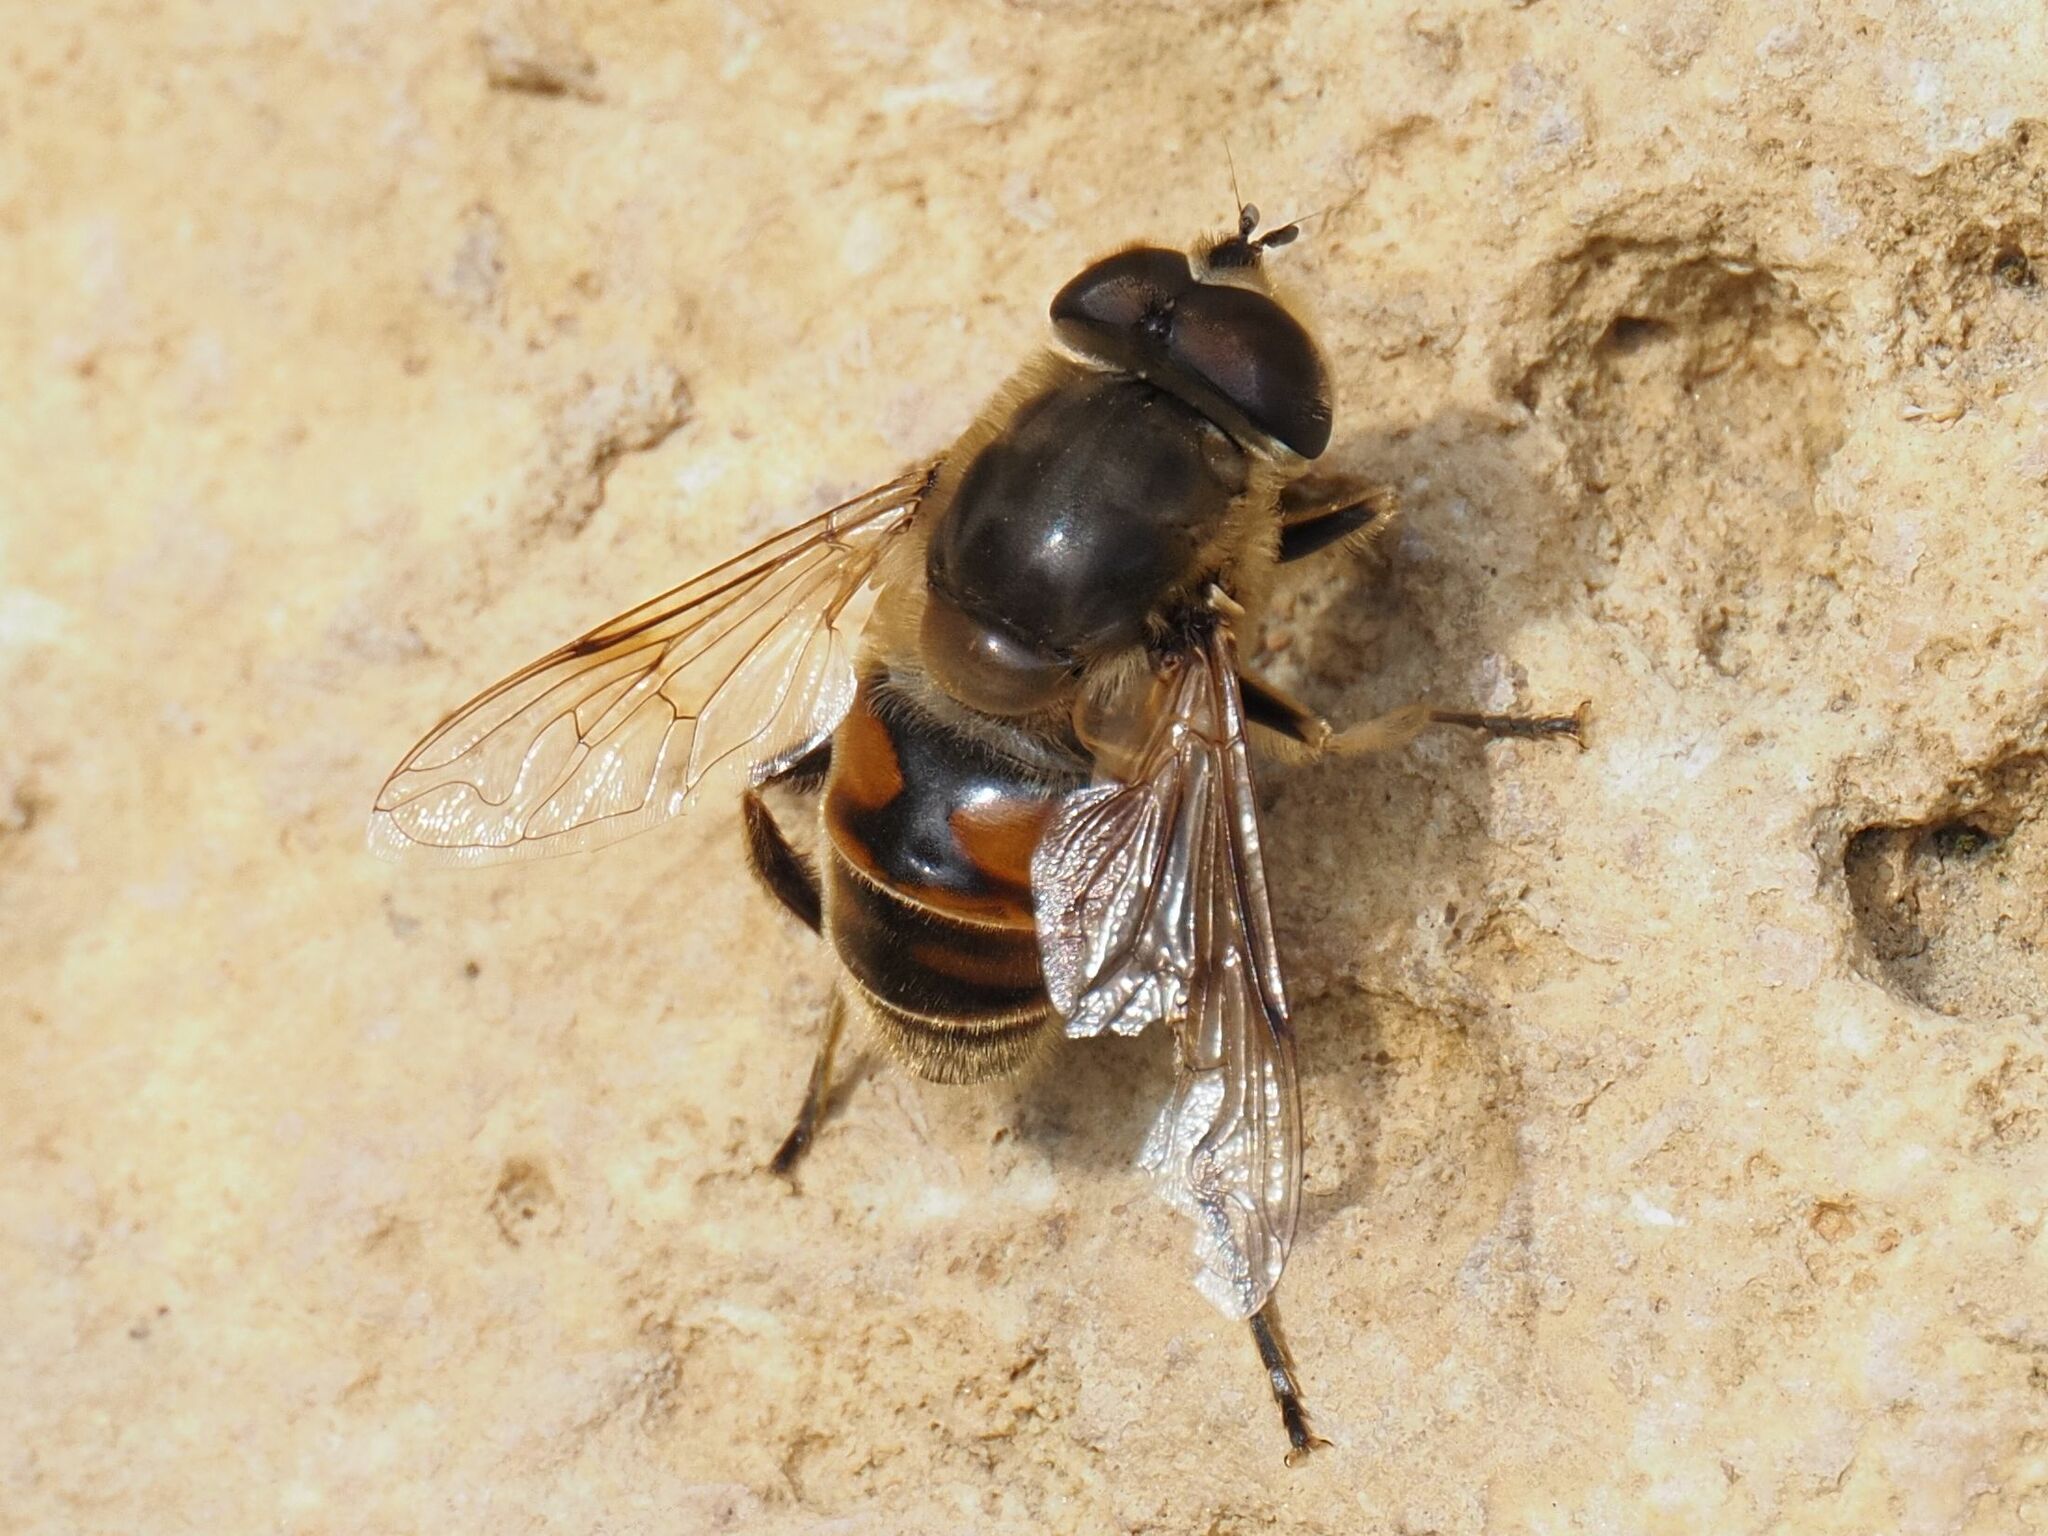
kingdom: Animalia
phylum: Arthropoda
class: Insecta
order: Diptera
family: Syrphidae
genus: Eristalis
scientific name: Eristalis tenax
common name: Drone fly
